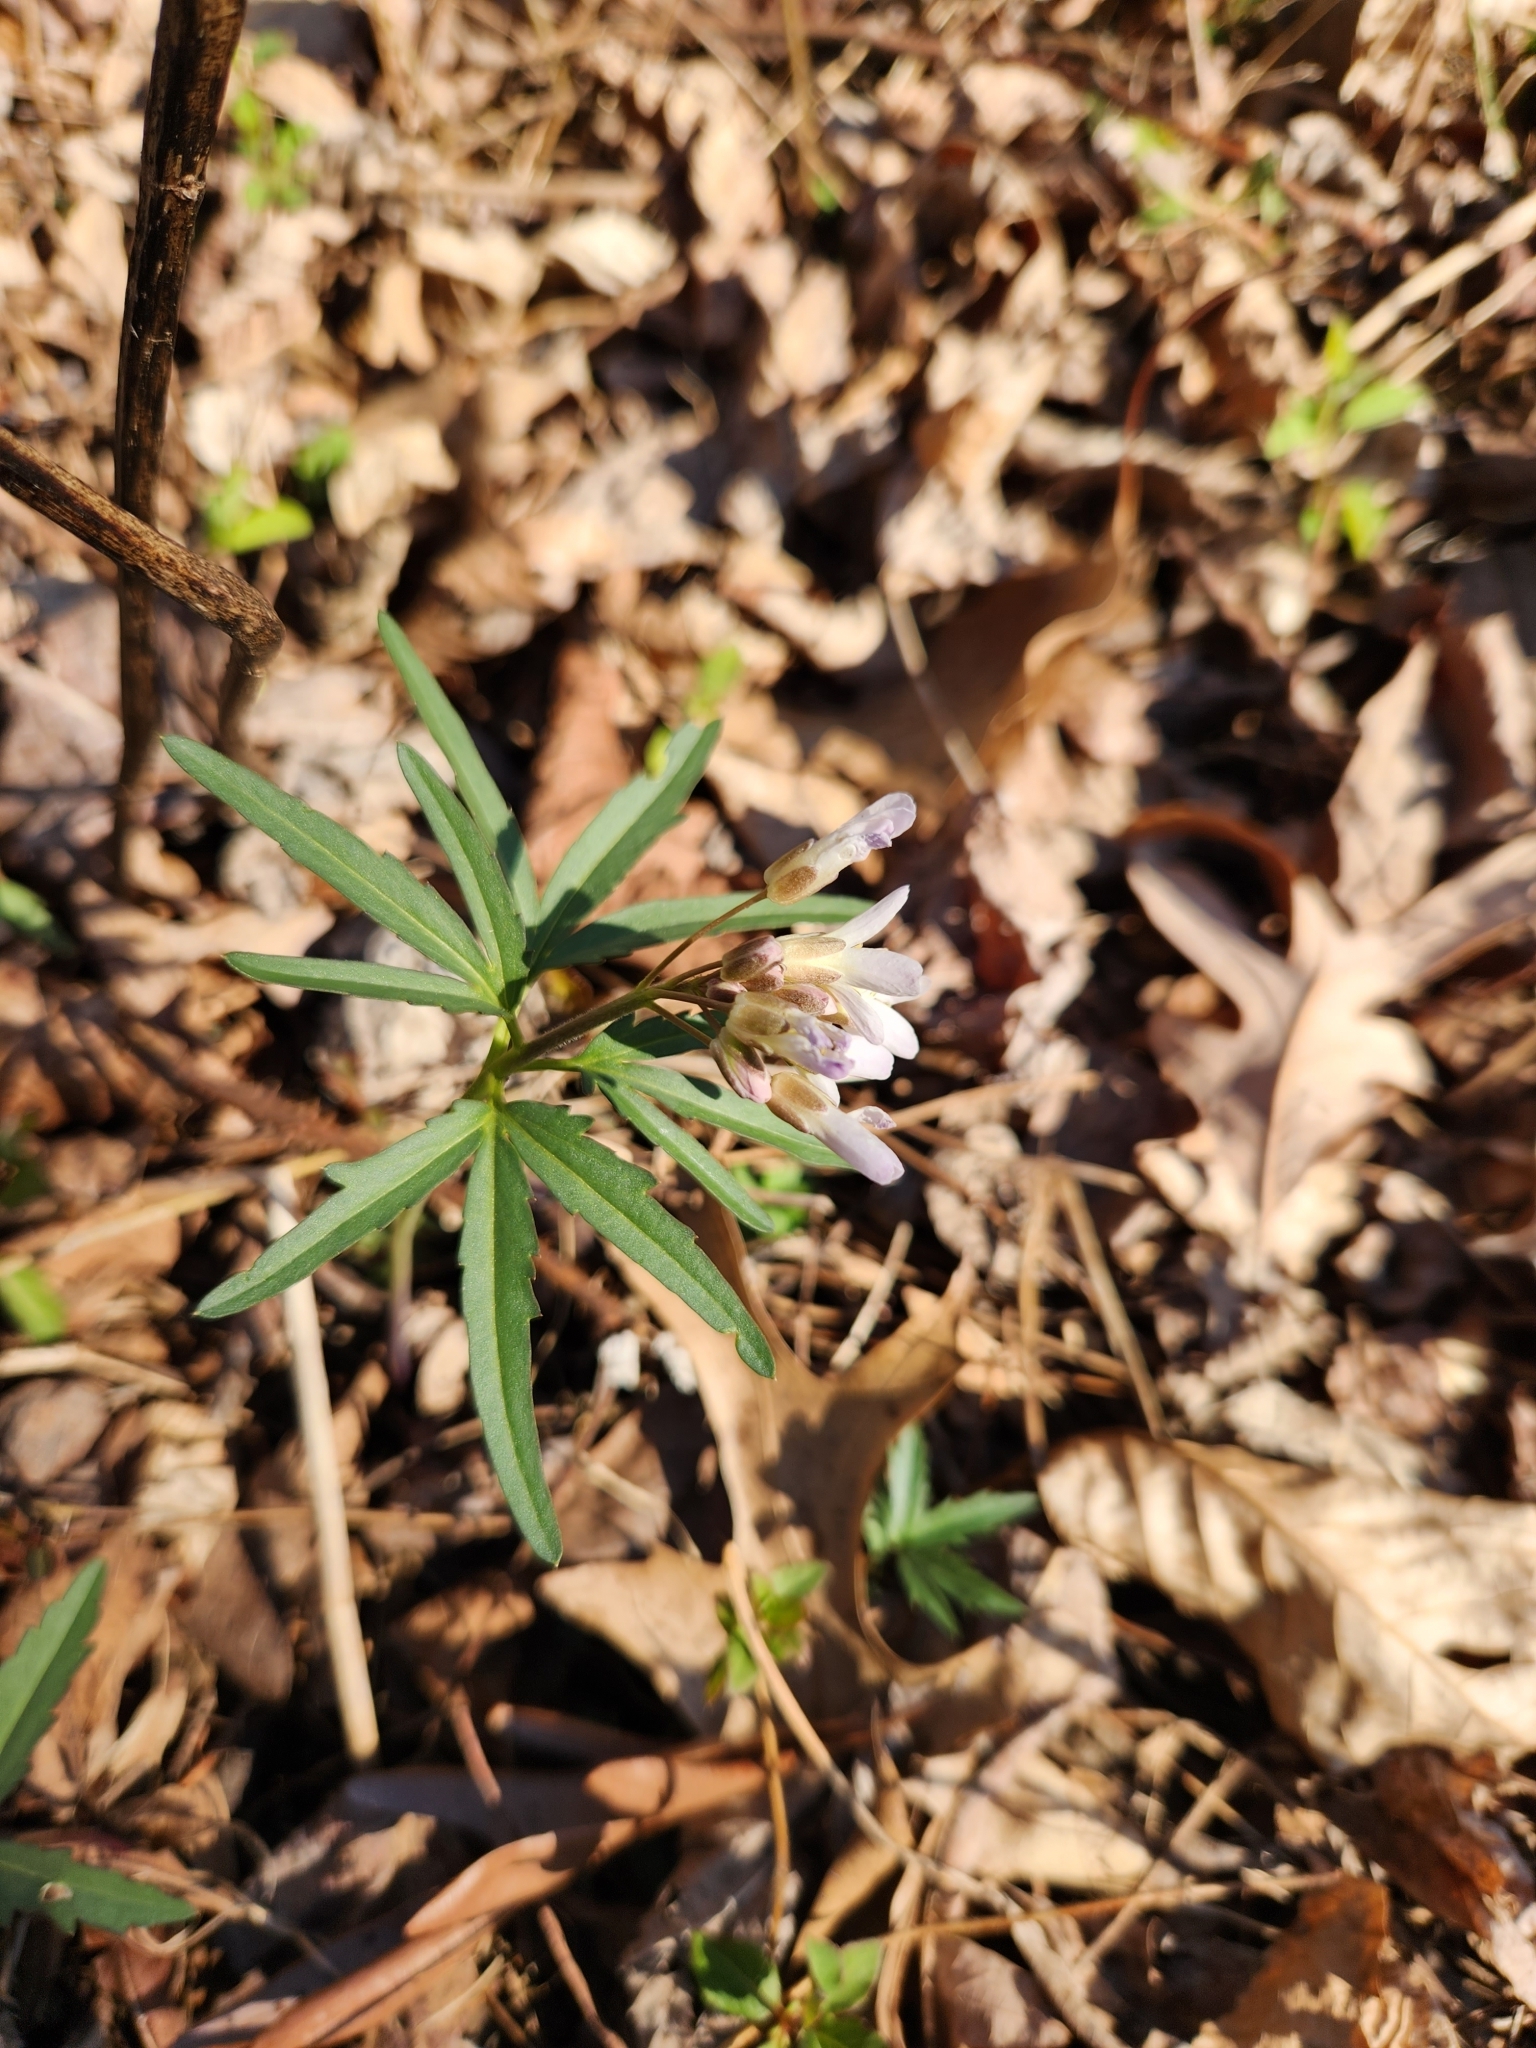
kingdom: Plantae
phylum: Tracheophyta
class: Magnoliopsida
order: Brassicales
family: Brassicaceae
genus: Cardamine
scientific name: Cardamine concatenata
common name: Cut-leaf toothcup
